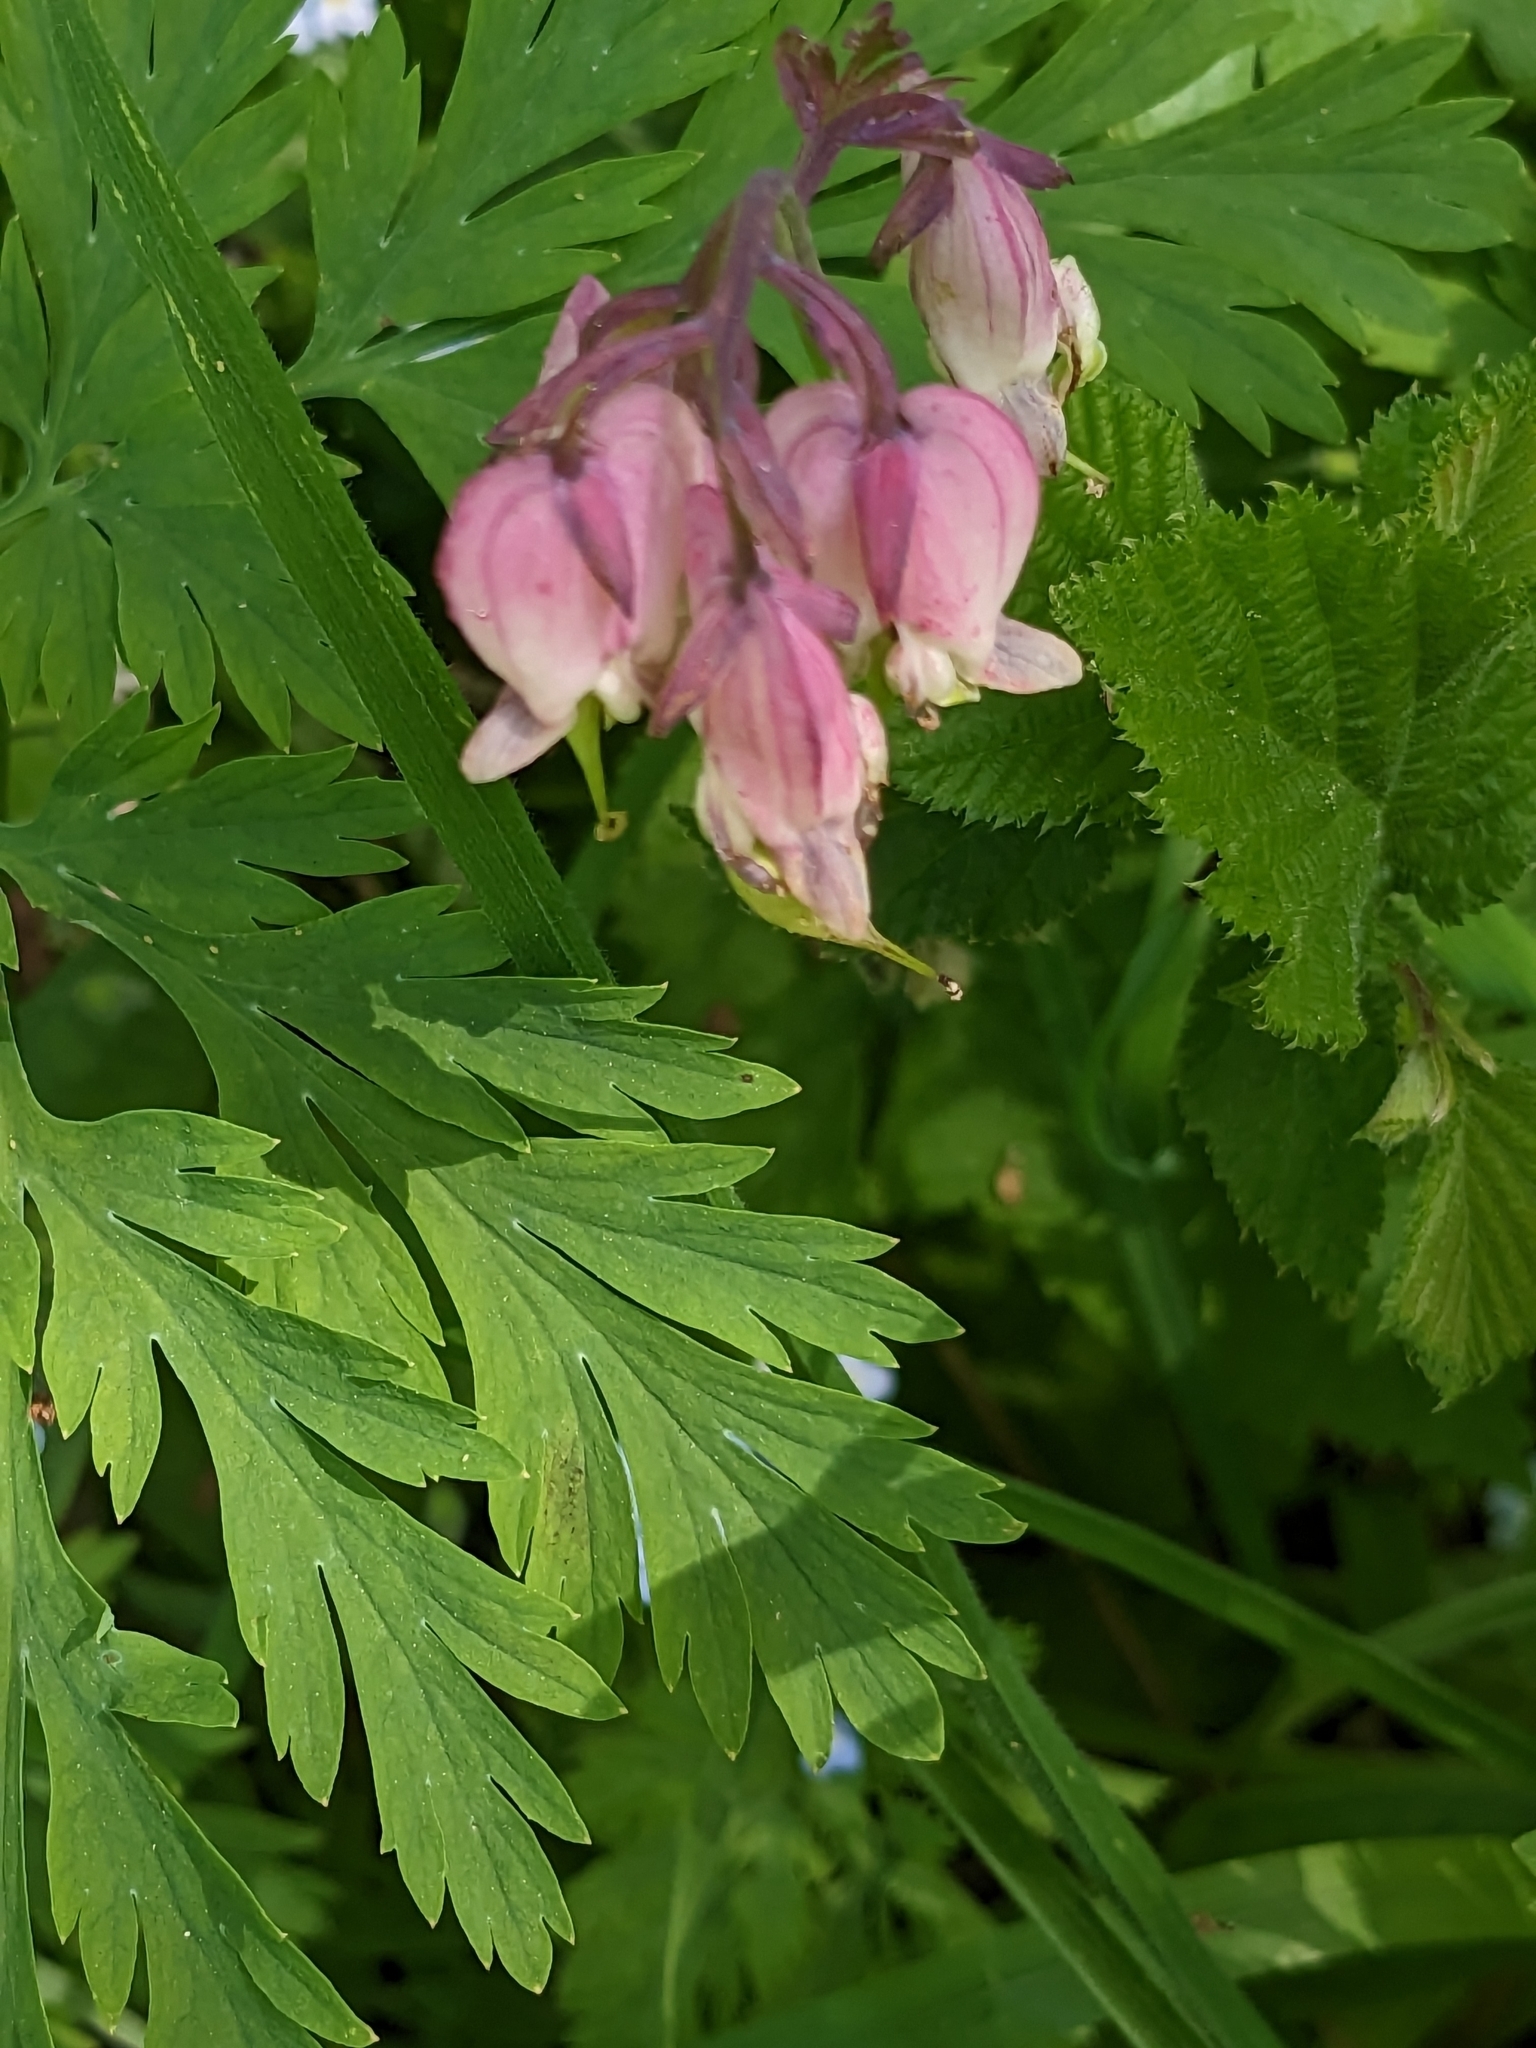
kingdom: Plantae
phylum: Tracheophyta
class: Magnoliopsida
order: Ranunculales
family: Papaveraceae
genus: Dicentra
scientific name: Dicentra formosa
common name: Bleeding-heart
